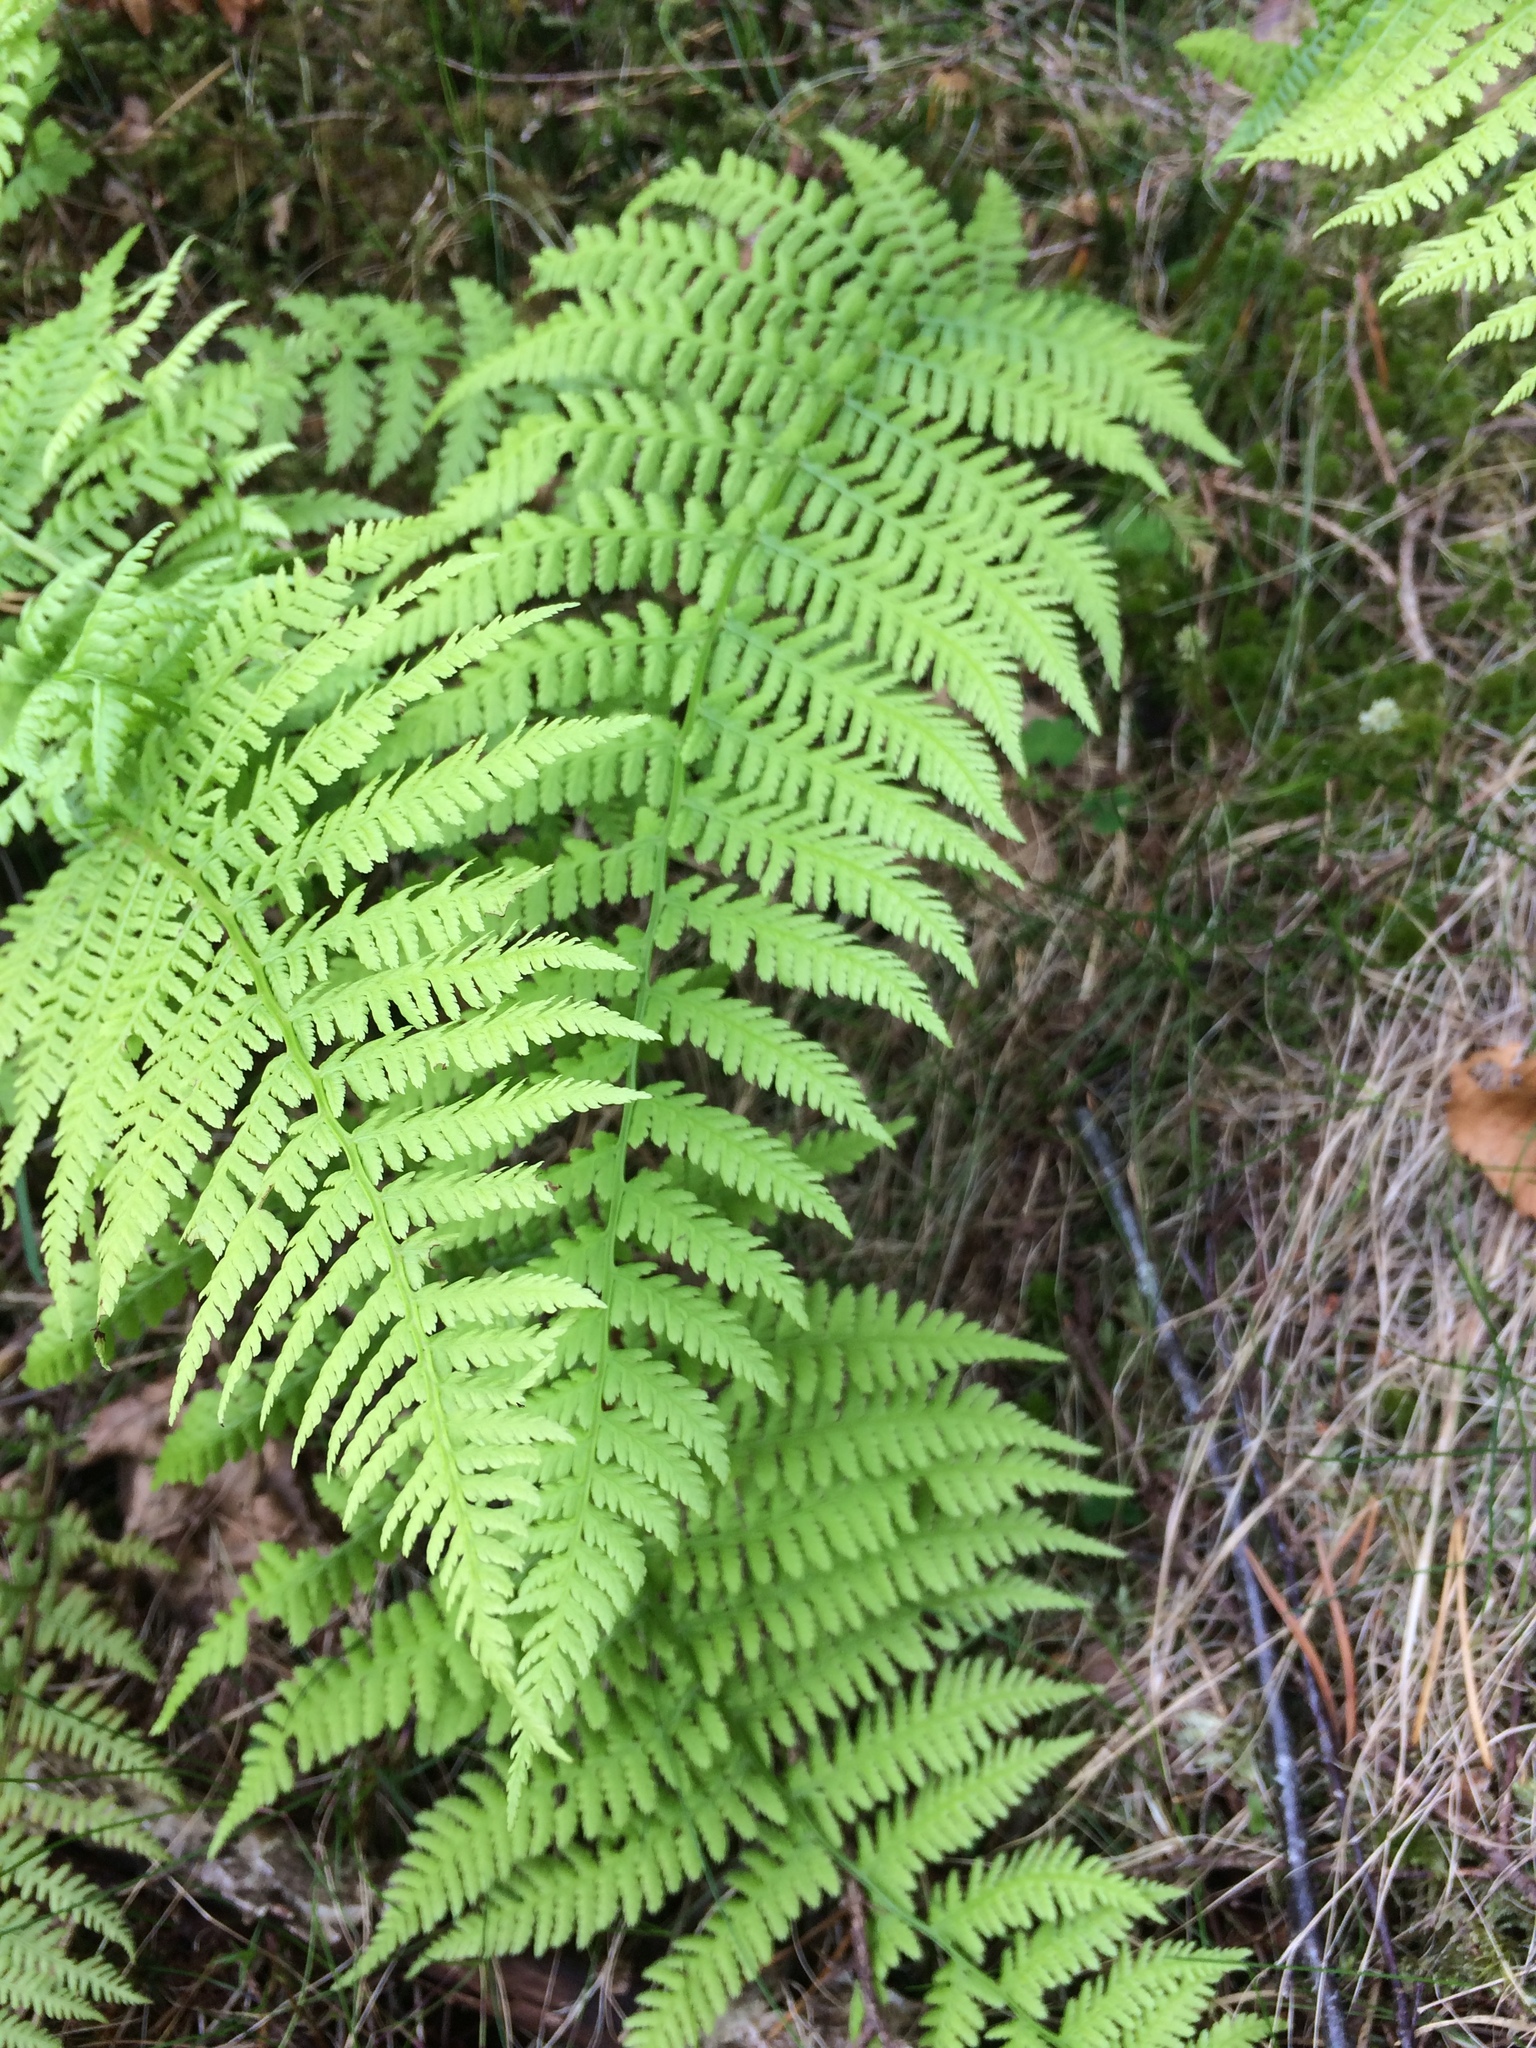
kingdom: Plantae
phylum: Tracheophyta
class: Polypodiopsida
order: Polypodiales
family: Athyriaceae
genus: Athyrium
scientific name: Athyrium filix-femina
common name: Lady fern
